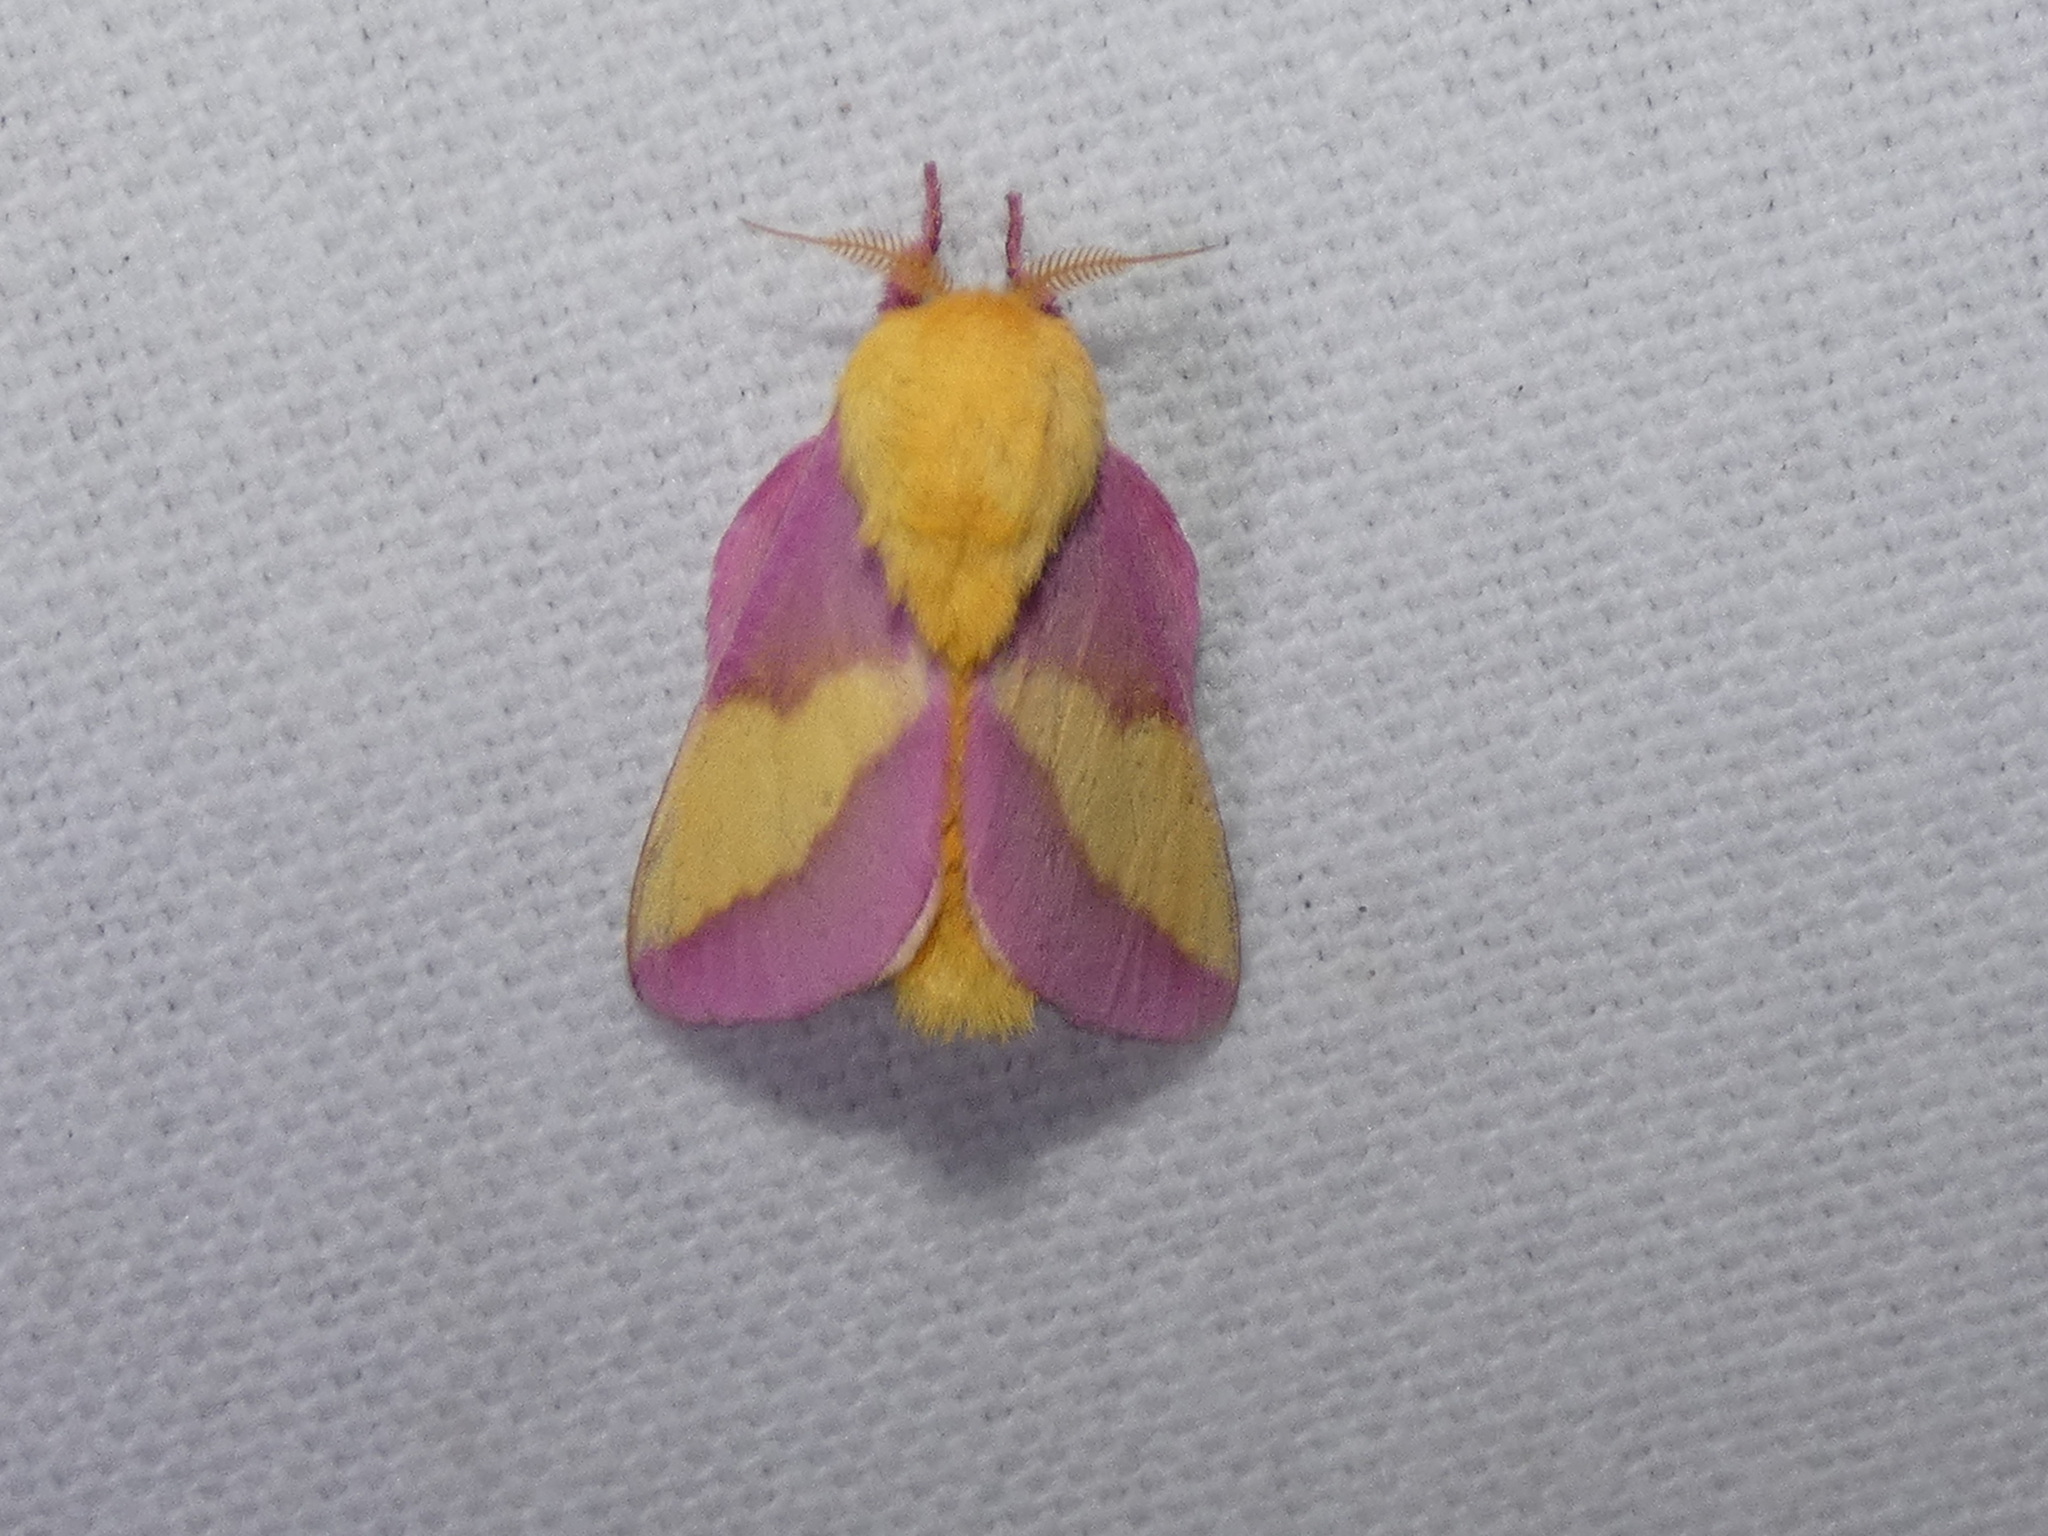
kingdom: Animalia
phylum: Arthropoda
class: Insecta
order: Lepidoptera
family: Saturniidae
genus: Dryocampa
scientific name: Dryocampa rubicunda
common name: Rosy maple moth
